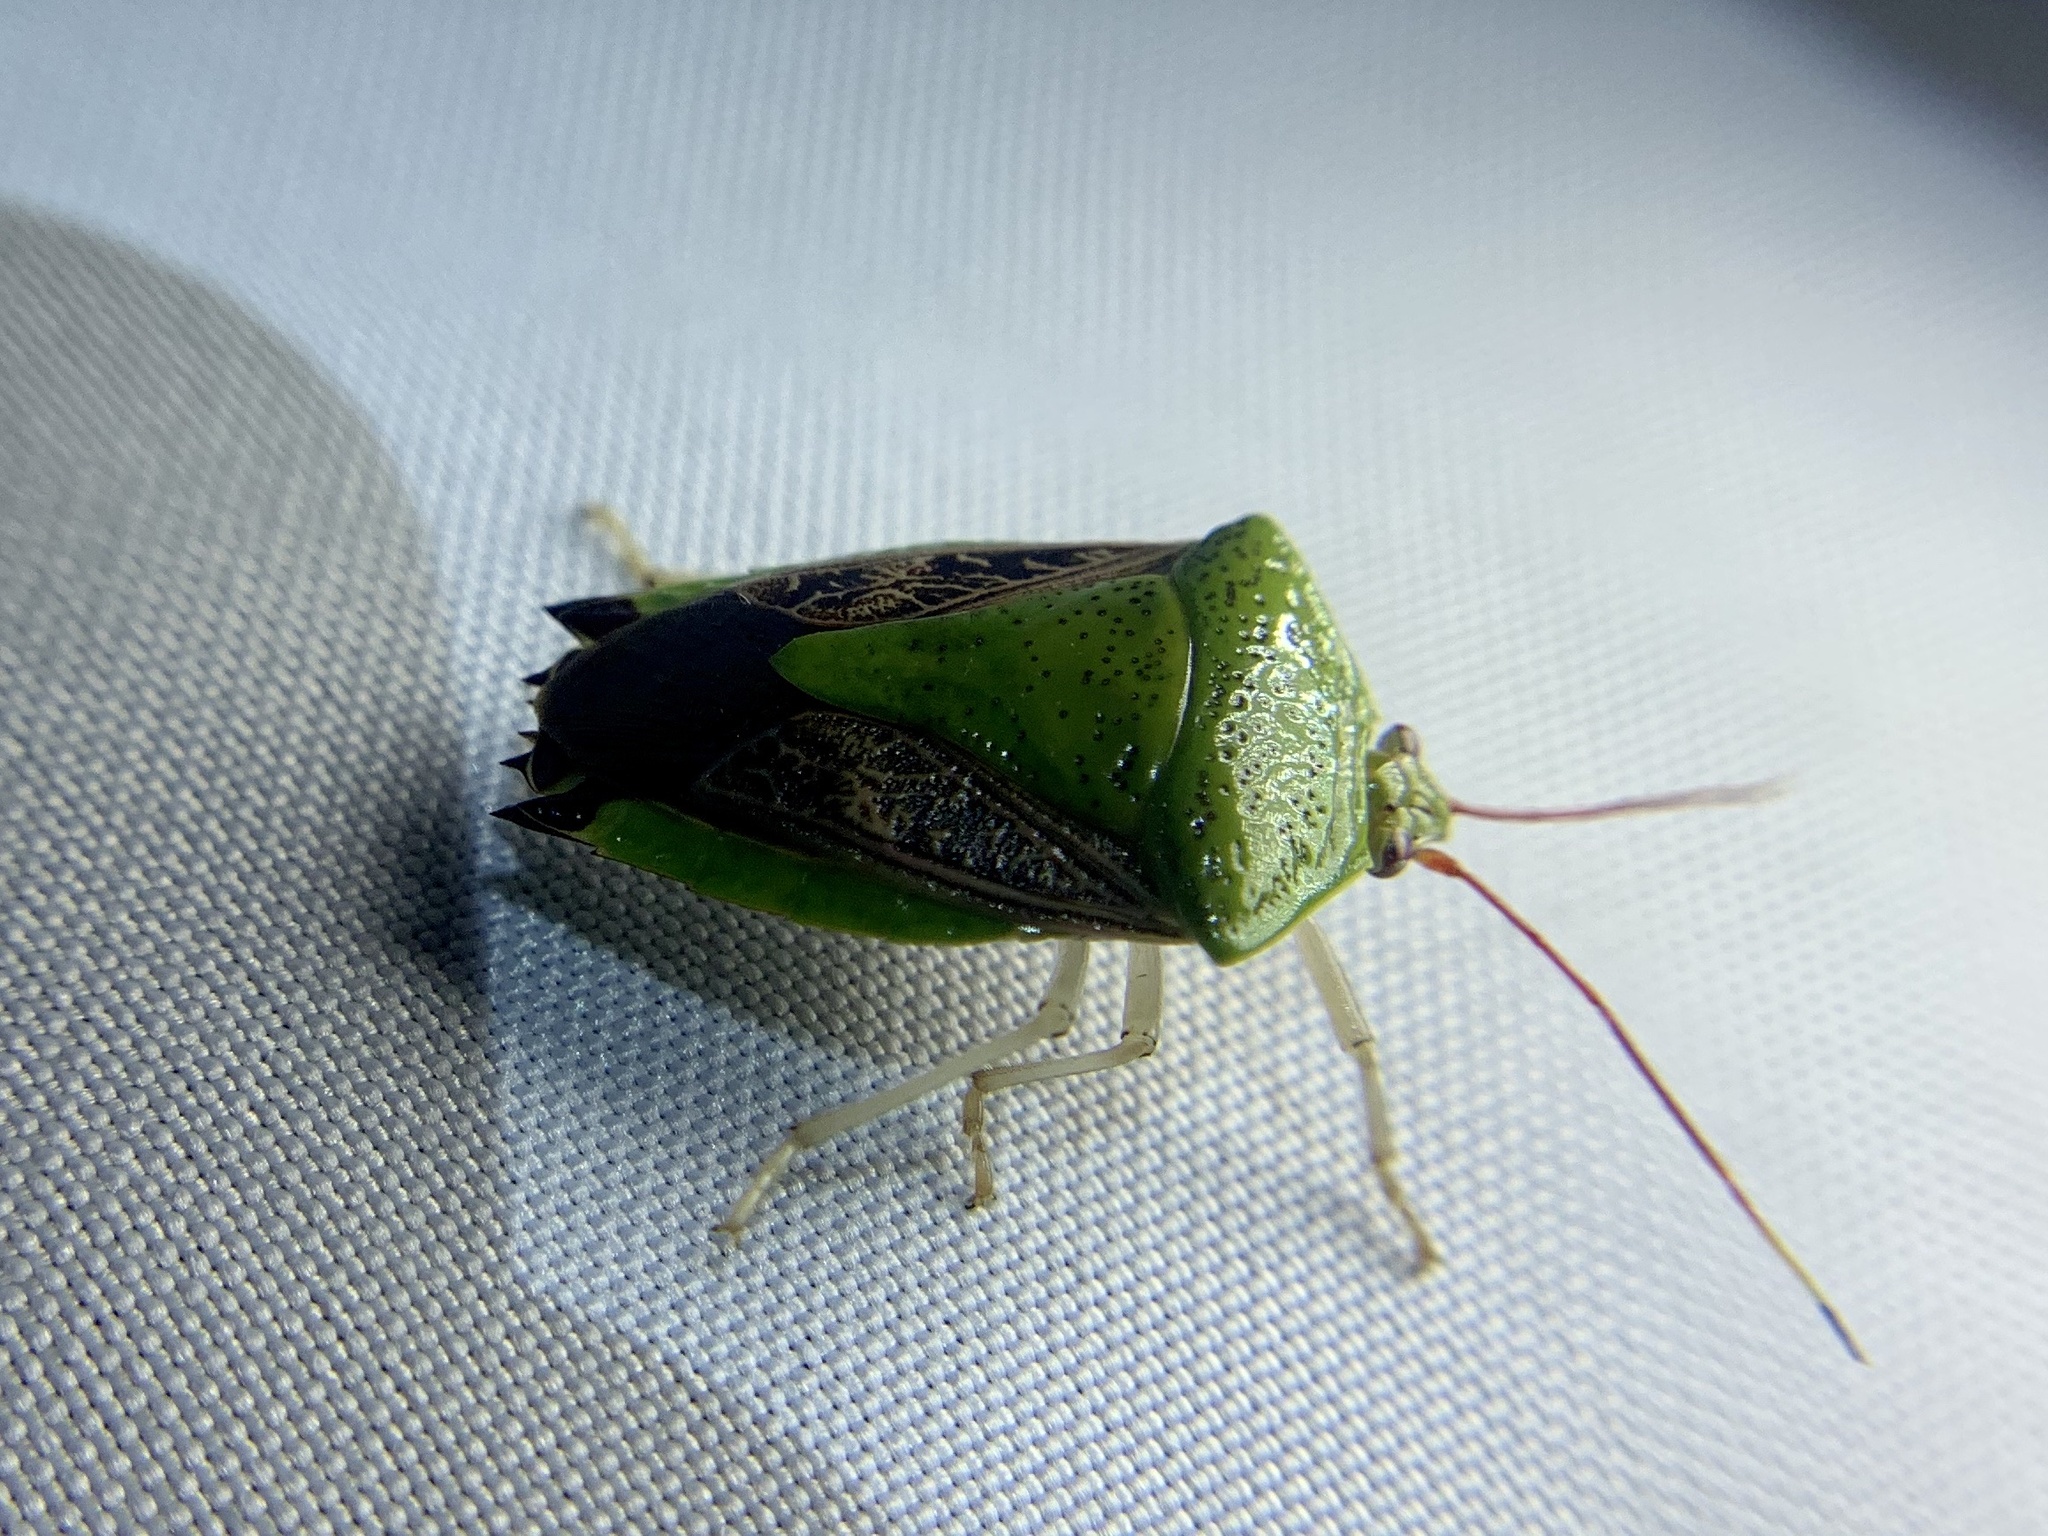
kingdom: Animalia
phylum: Arthropoda
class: Insecta
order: Hemiptera
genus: Pygoda
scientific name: Pygoda ramosa
